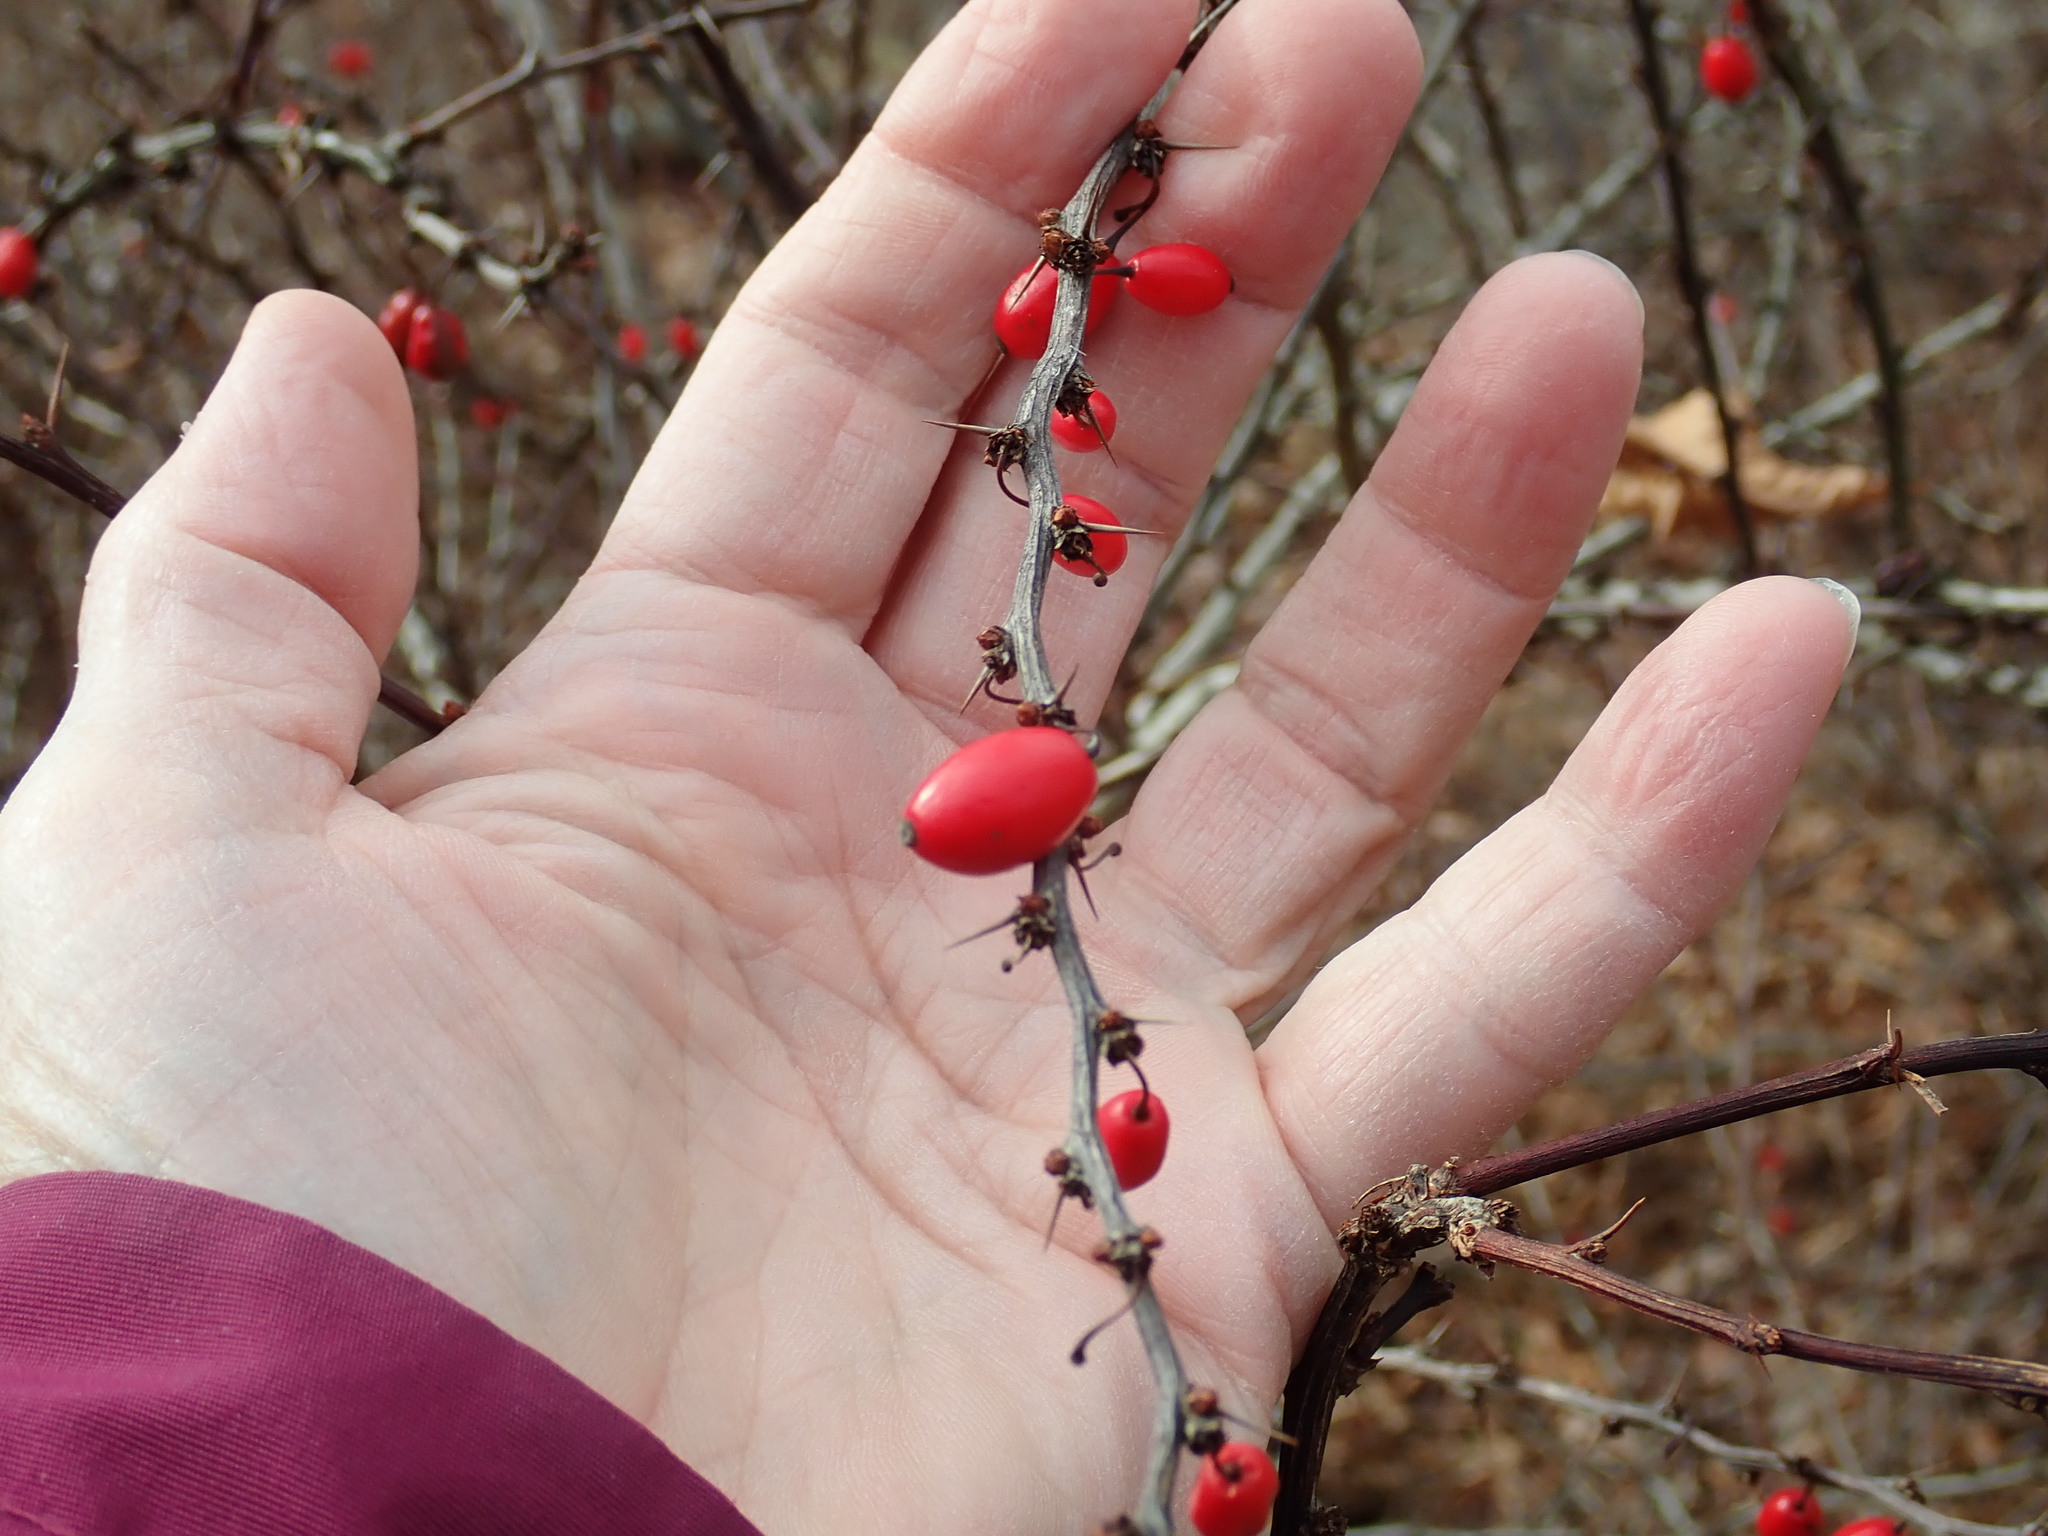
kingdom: Plantae
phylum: Tracheophyta
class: Magnoliopsida
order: Ranunculales
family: Berberidaceae
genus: Berberis
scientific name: Berberis thunbergii
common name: Japanese barberry
